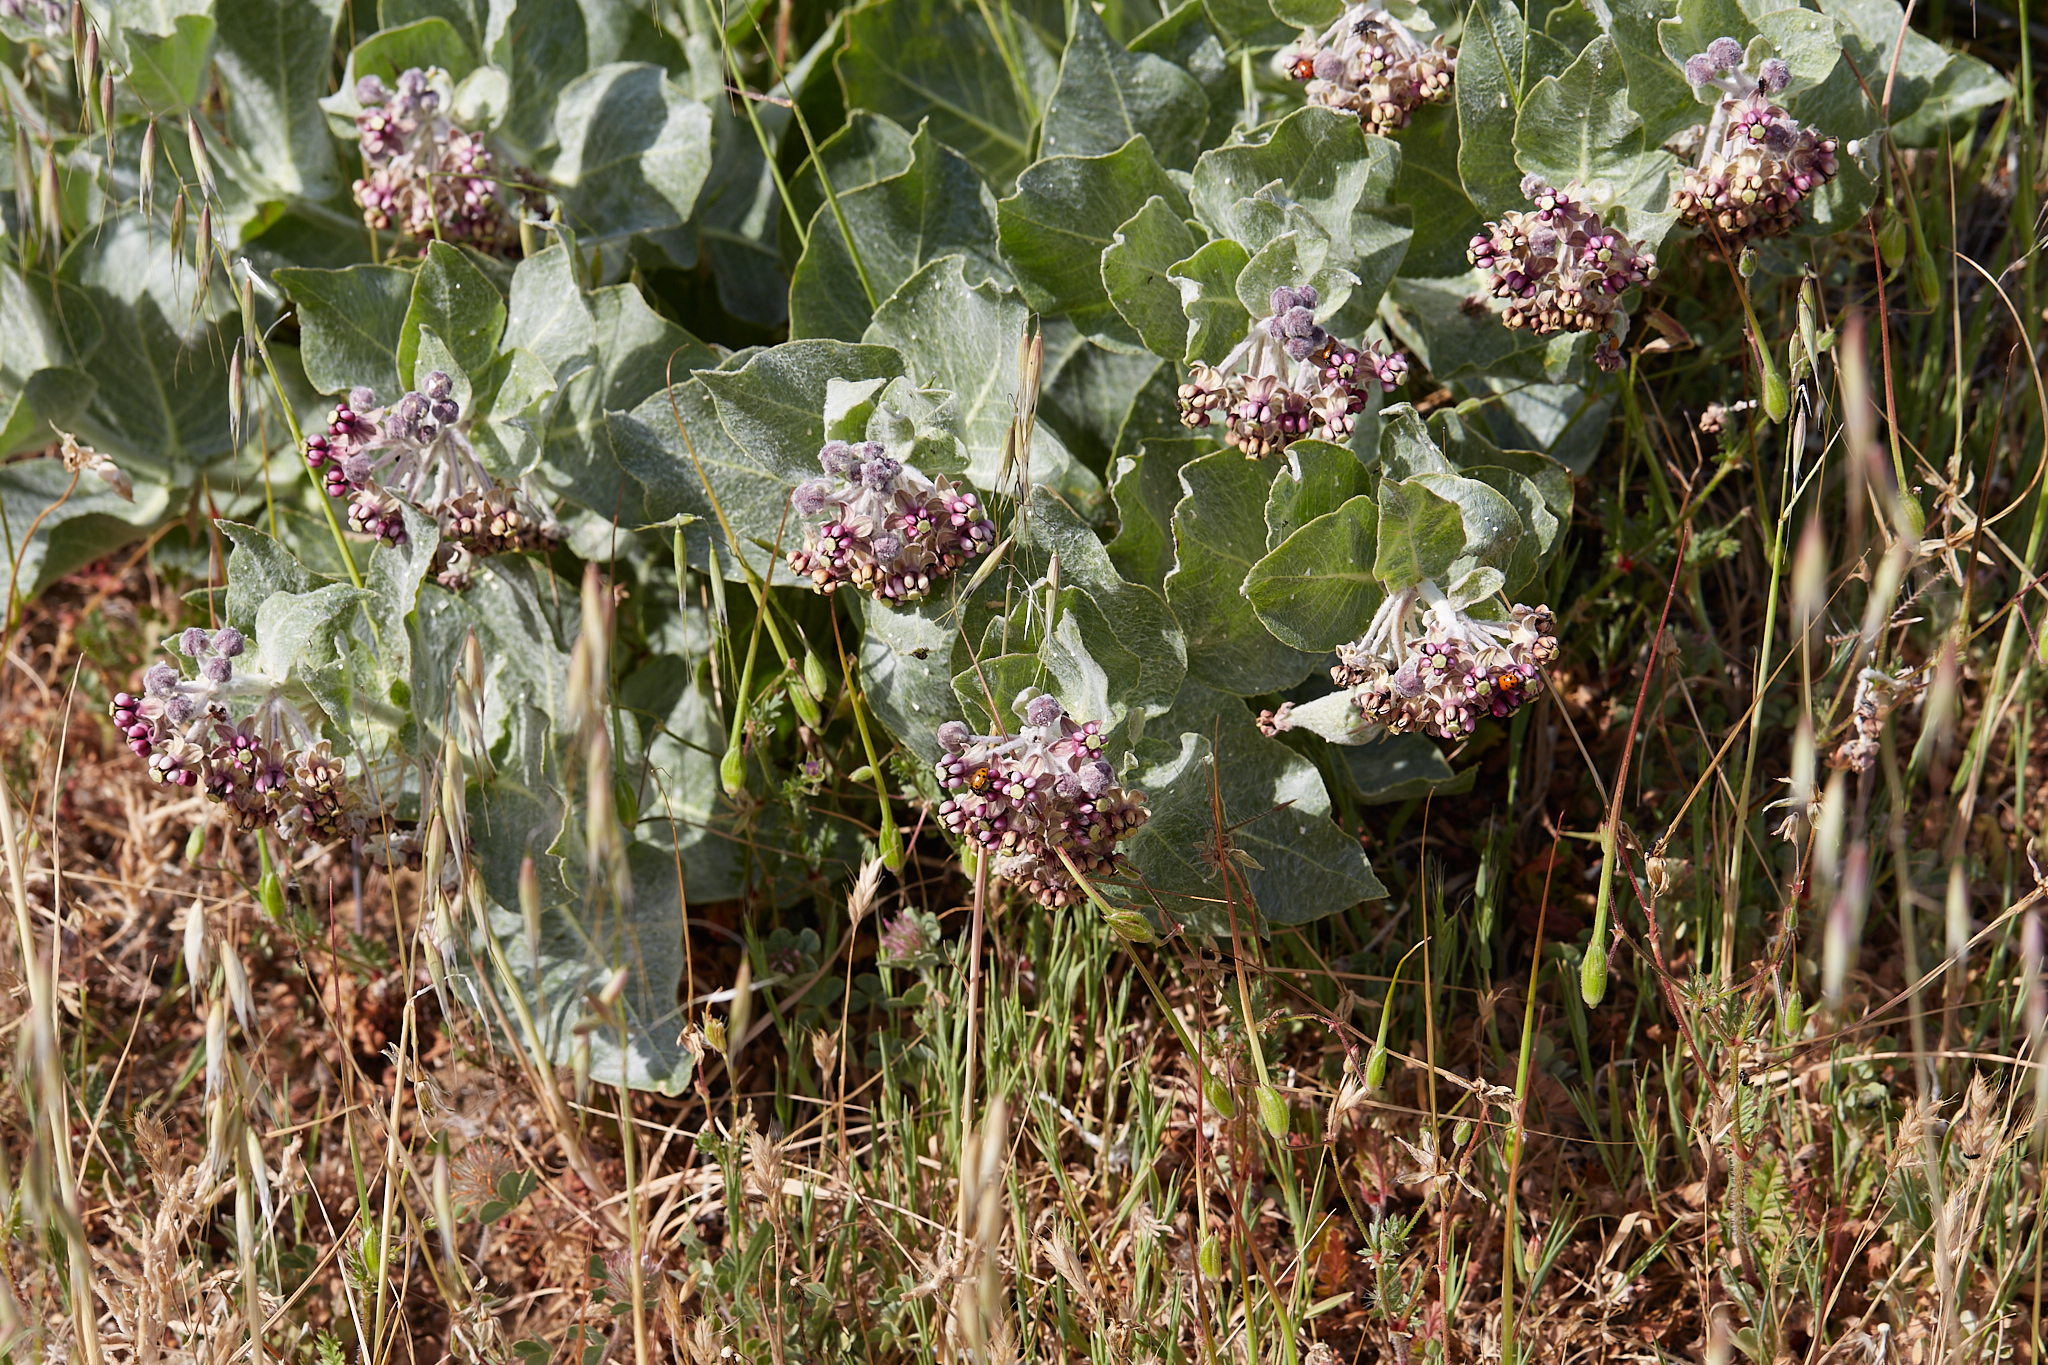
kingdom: Plantae
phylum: Tracheophyta
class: Magnoliopsida
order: Gentianales
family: Apocynaceae
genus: Asclepias
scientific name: Asclepias californica
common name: California milkweed
